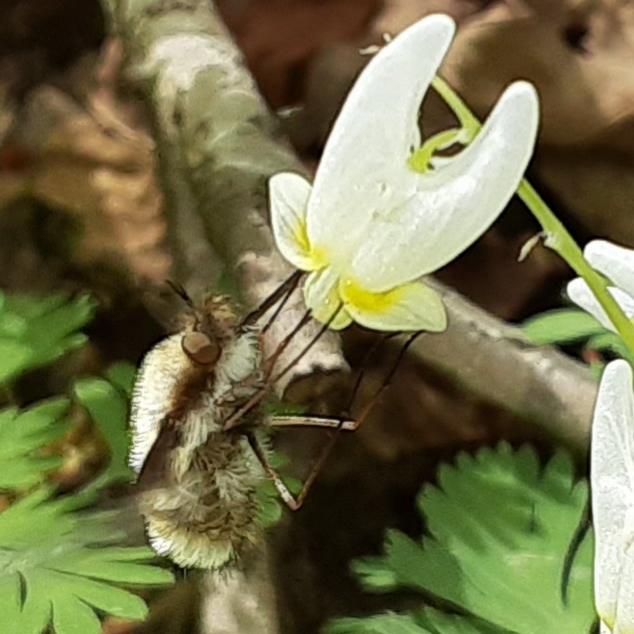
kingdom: Animalia
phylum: Arthropoda
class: Insecta
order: Diptera
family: Bombyliidae
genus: Bombylius
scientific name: Bombylius major
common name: Bee fly
